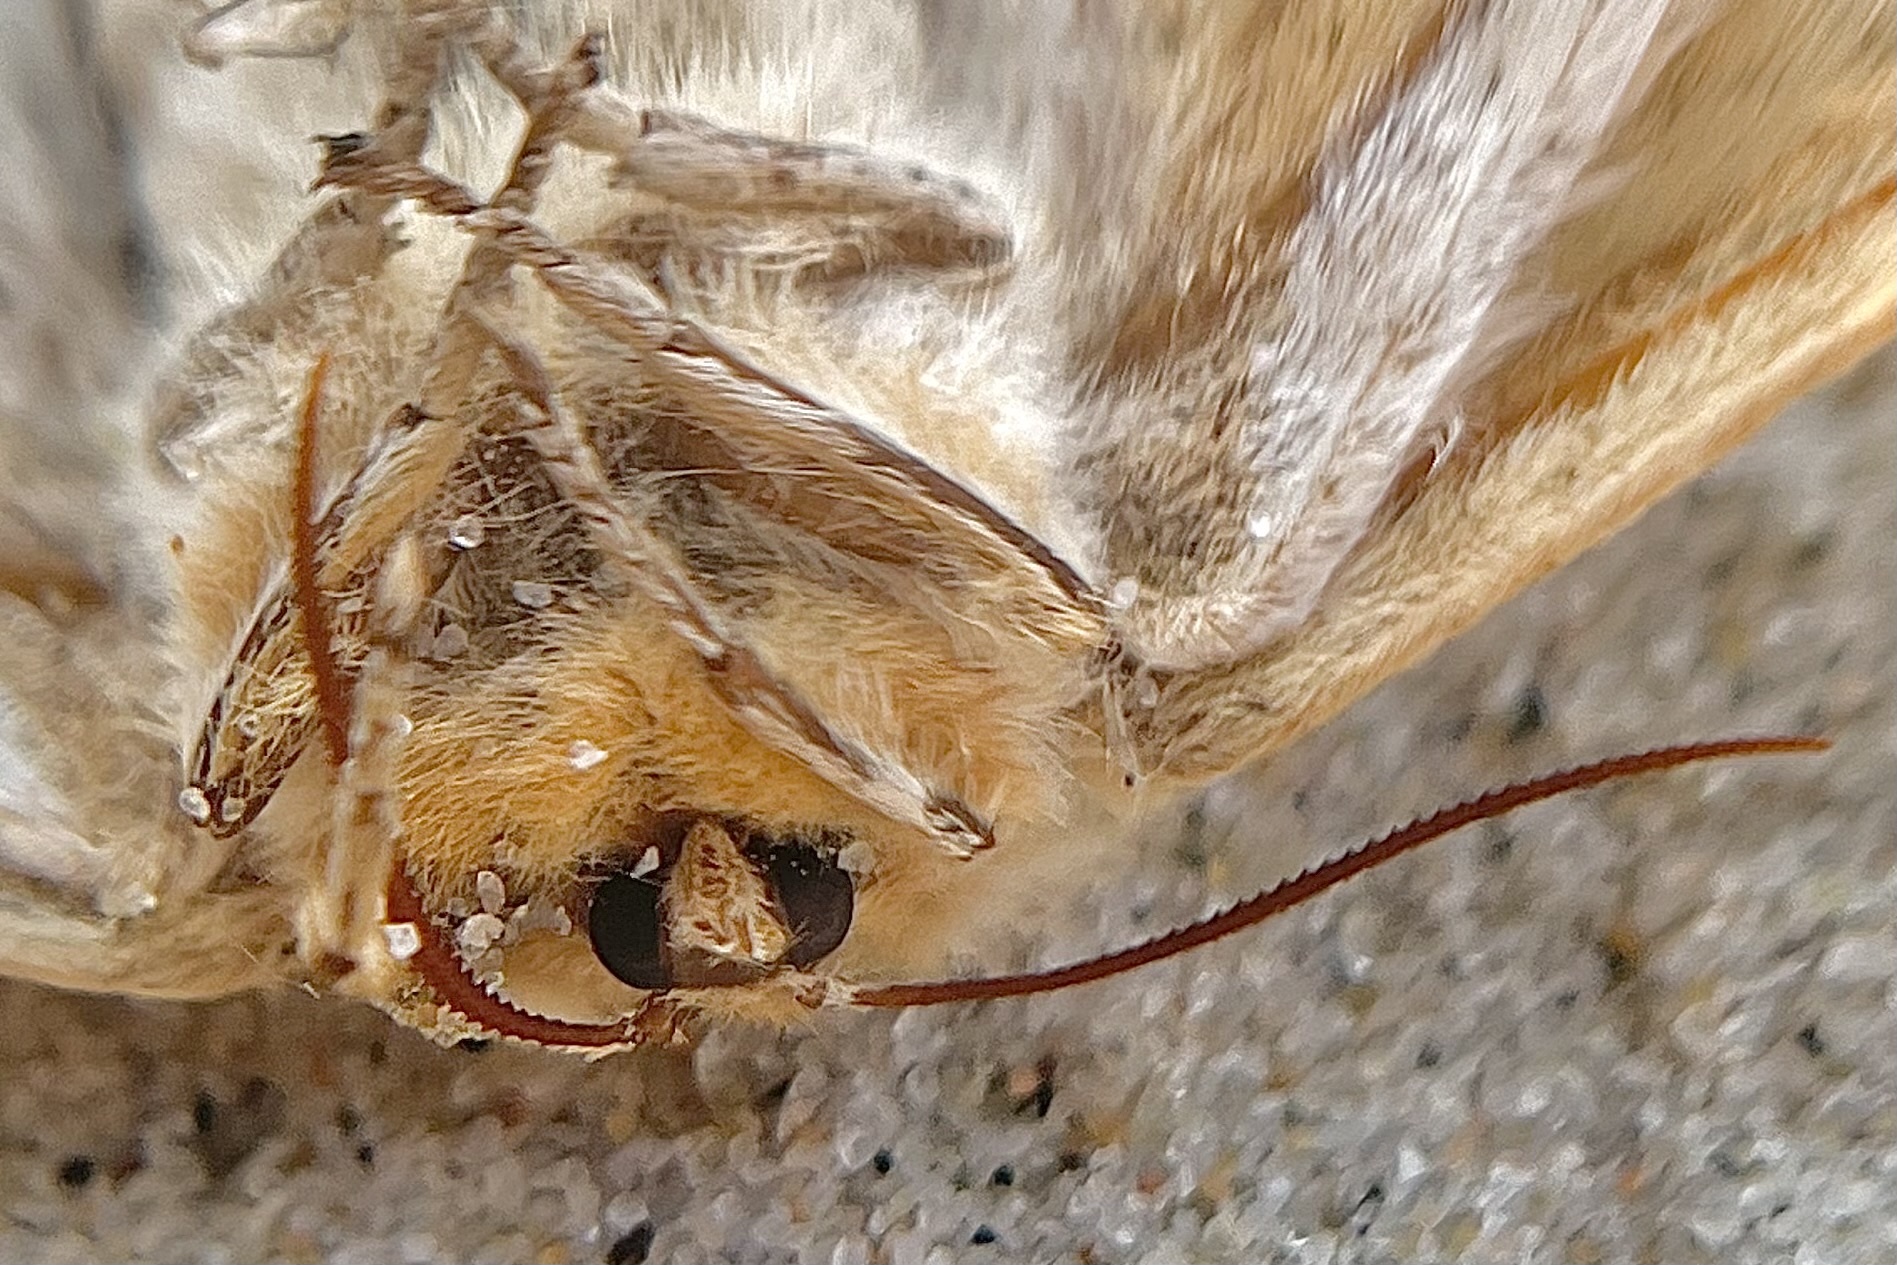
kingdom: Animalia
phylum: Arthropoda
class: Insecta
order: Lepidoptera
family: Saturniidae
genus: Aglia
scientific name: Aglia tau
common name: Tau emperor
